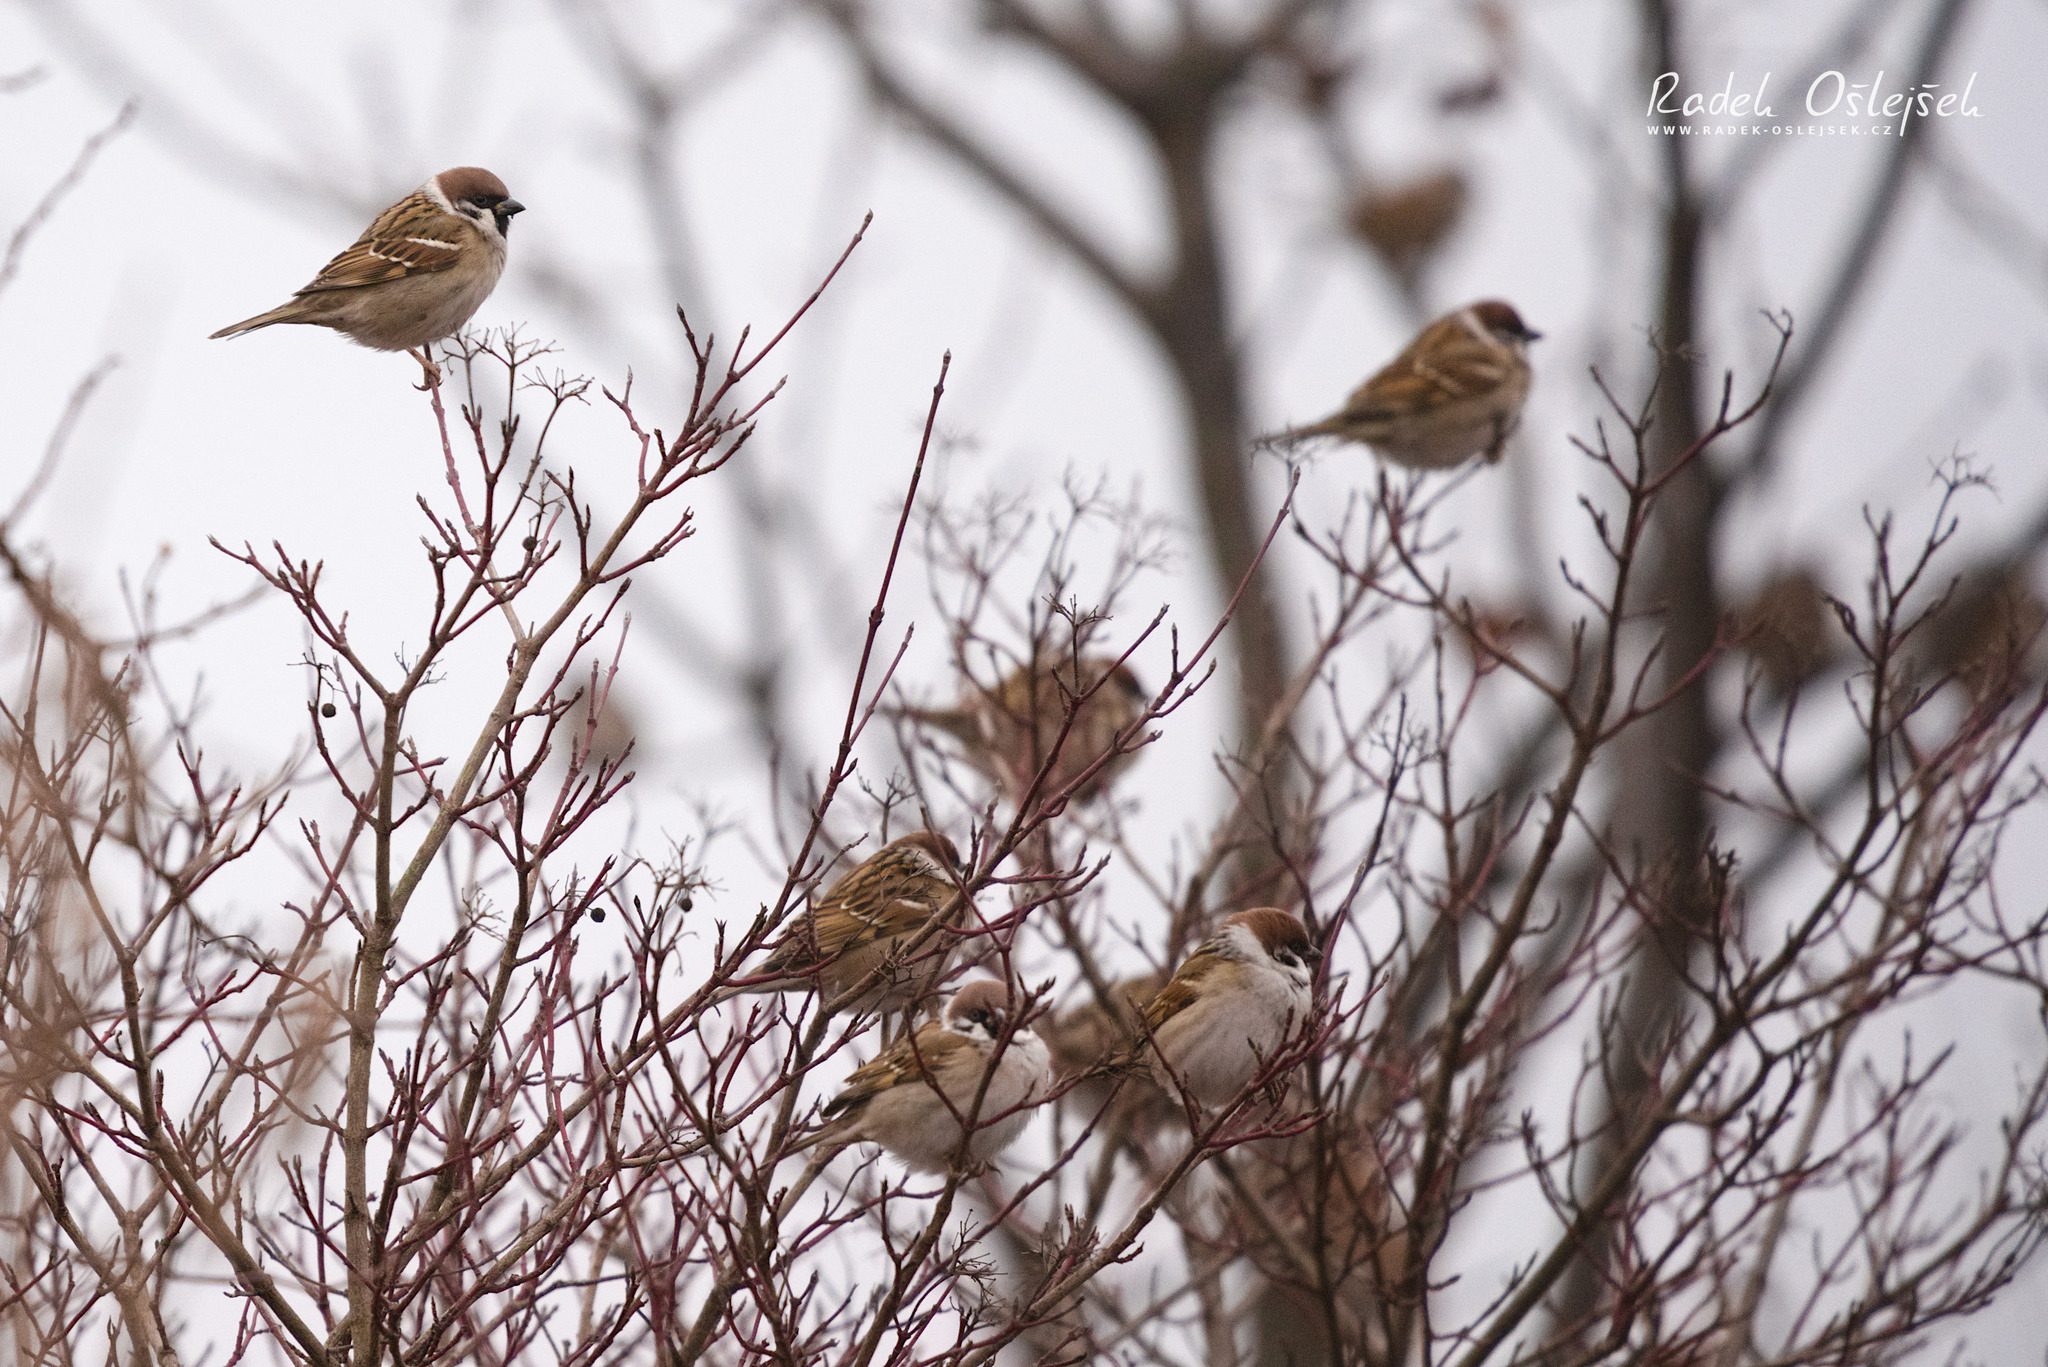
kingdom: Animalia
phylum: Chordata
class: Aves
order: Passeriformes
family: Passeridae
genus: Passer
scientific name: Passer montanus
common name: Eurasian tree sparrow
